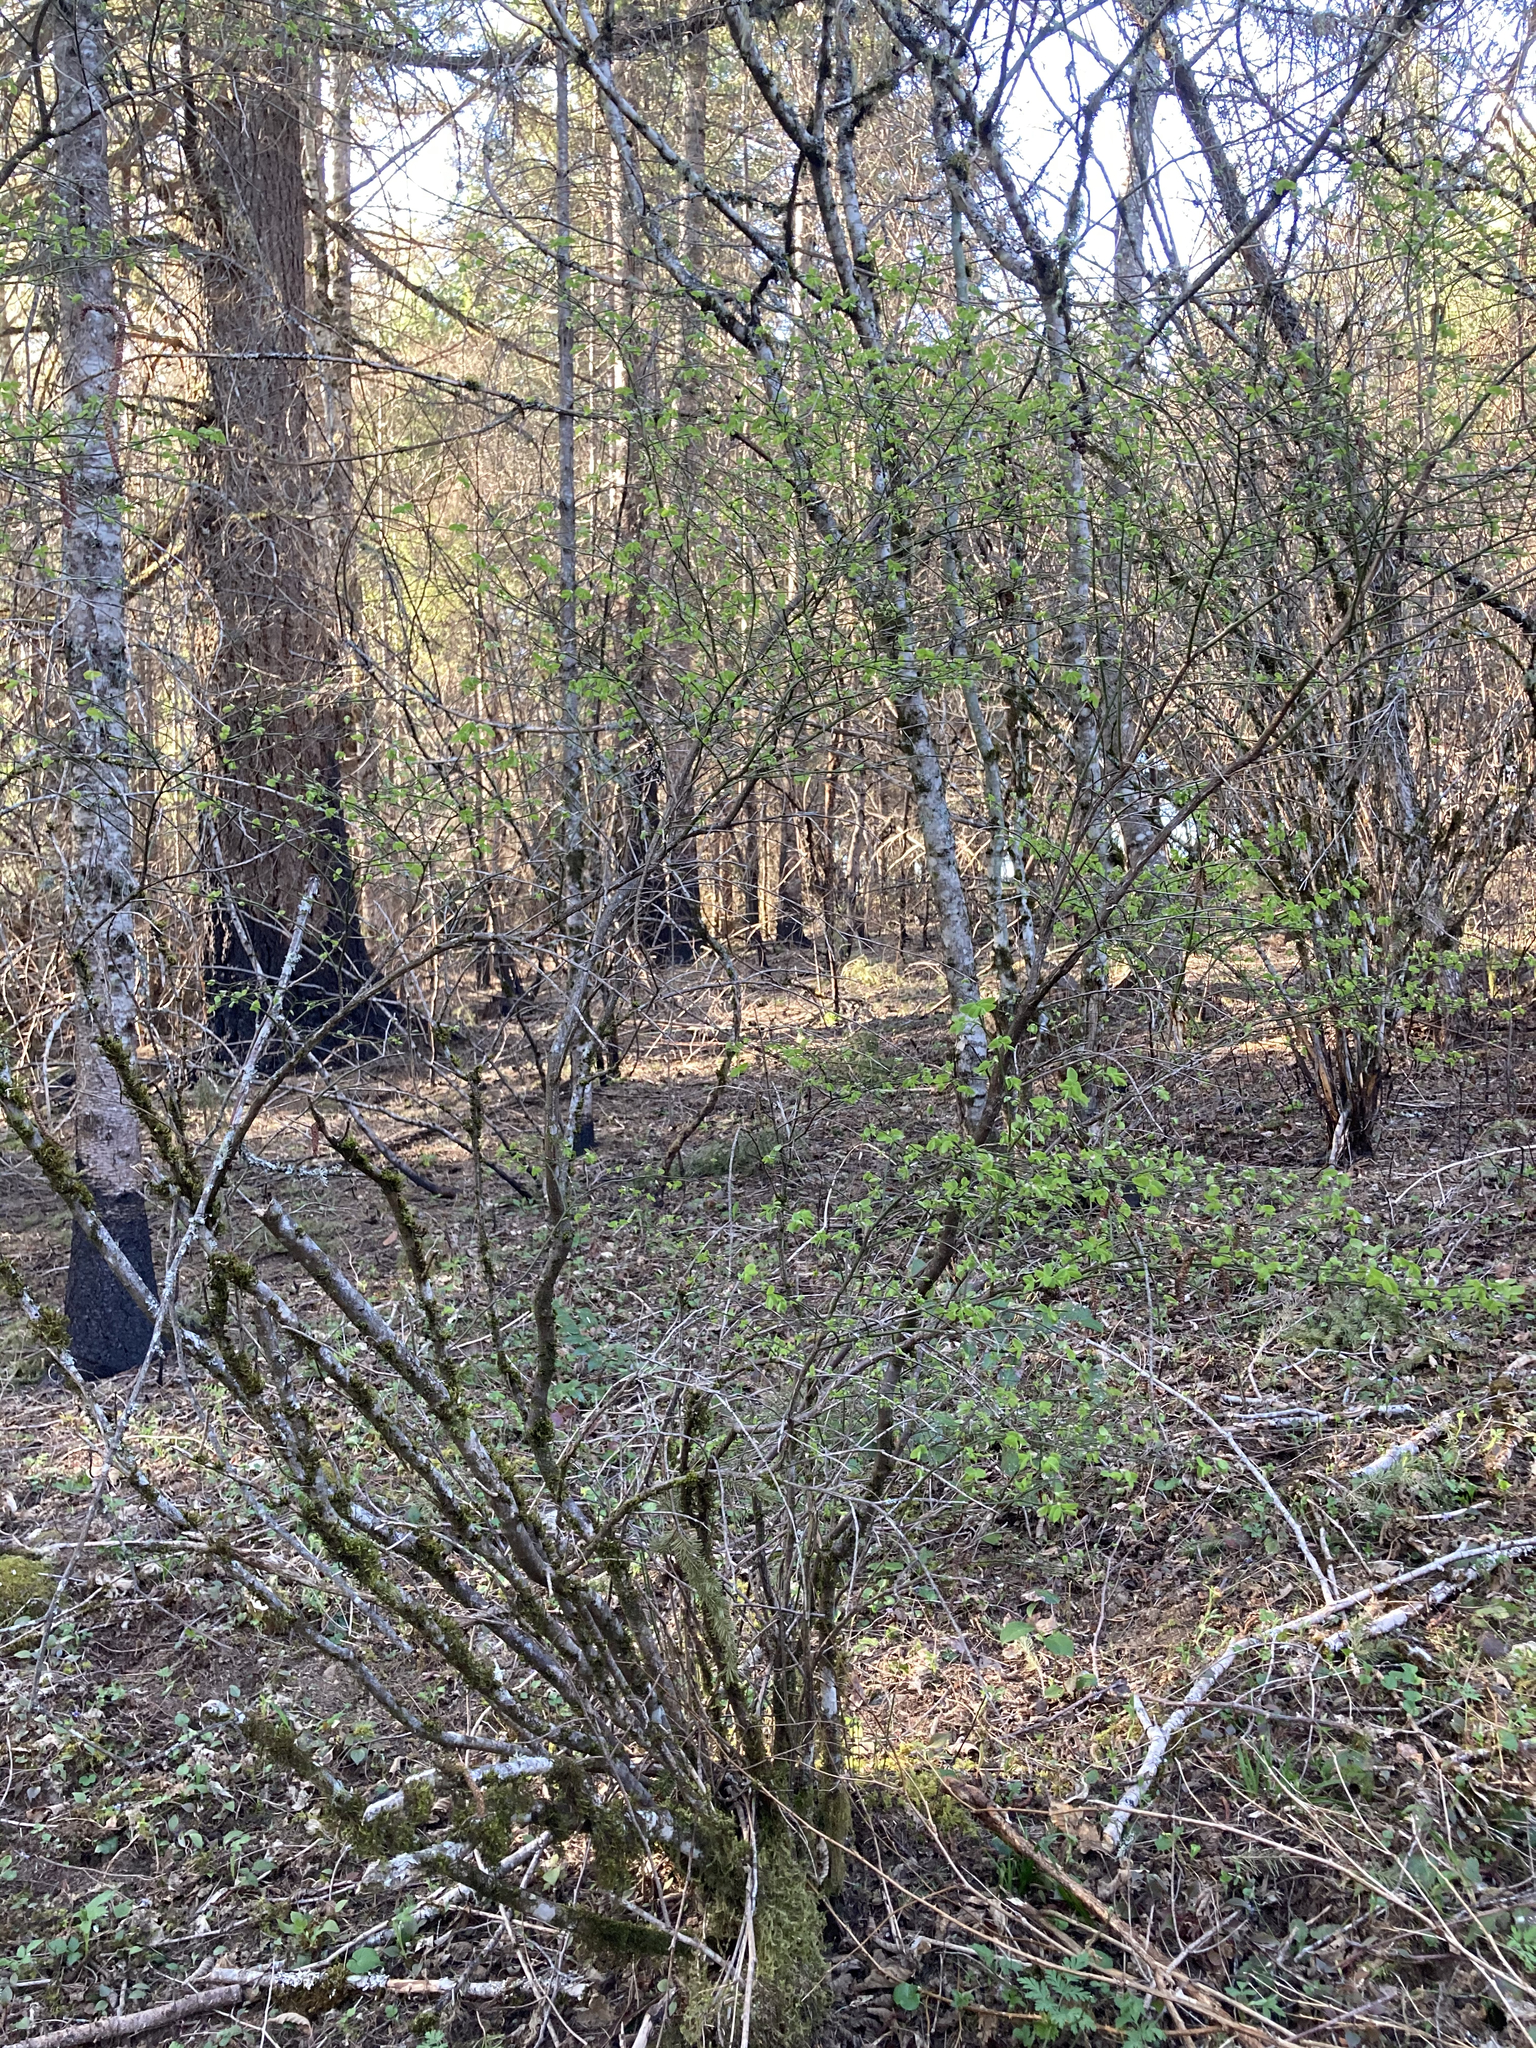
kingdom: Plantae
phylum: Tracheophyta
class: Magnoliopsida
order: Ericales
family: Ericaceae
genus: Vaccinium
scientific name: Vaccinium parvifolium
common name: Red-huckleberry
